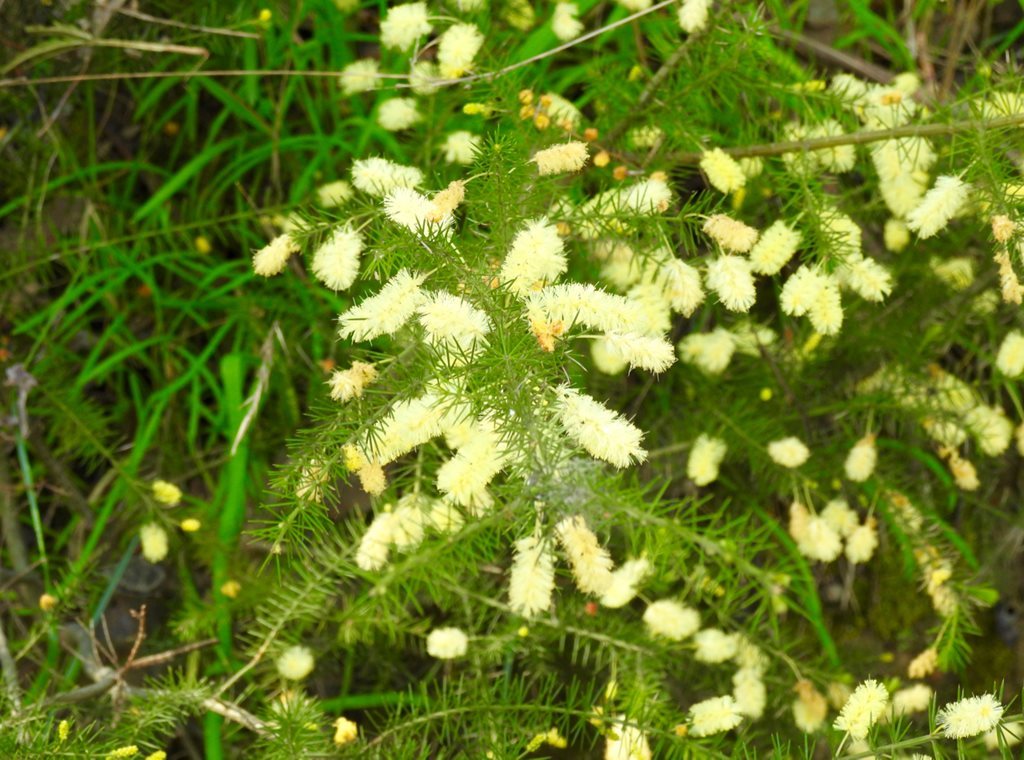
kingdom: Plantae
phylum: Tracheophyta
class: Magnoliopsida
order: Fabales
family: Fabaceae
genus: Acacia
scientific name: Acacia verticillata
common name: Prickly moses
